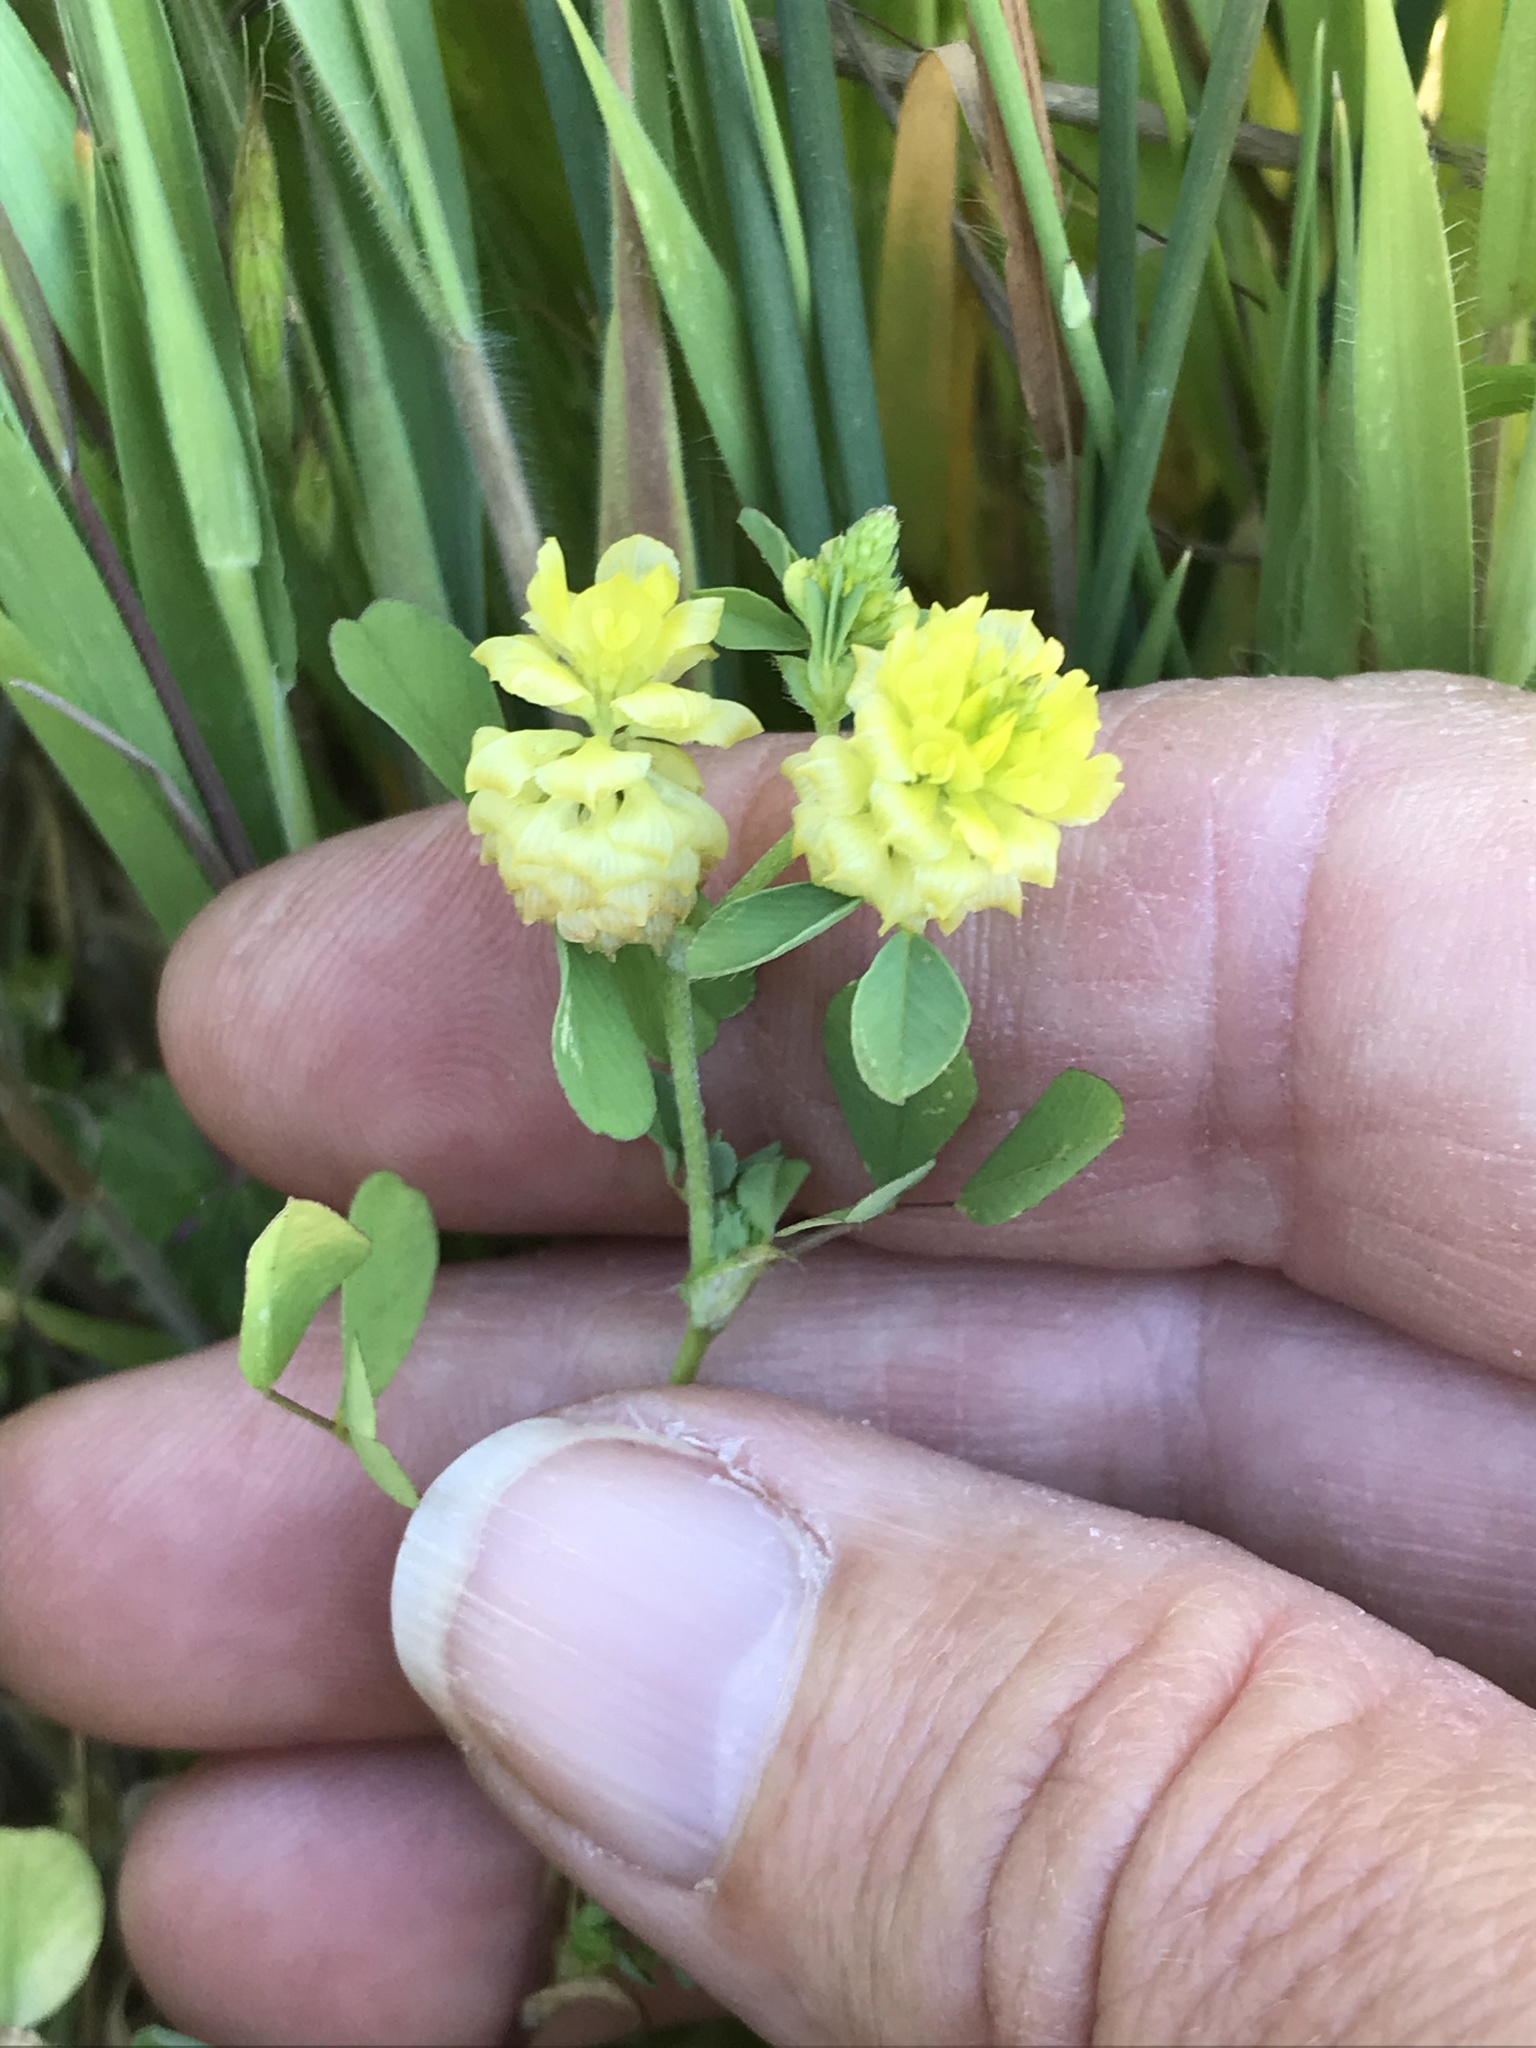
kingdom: Plantae
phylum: Tracheophyta
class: Magnoliopsida
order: Fabales
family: Fabaceae
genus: Trifolium
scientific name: Trifolium campestre
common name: Field clover
